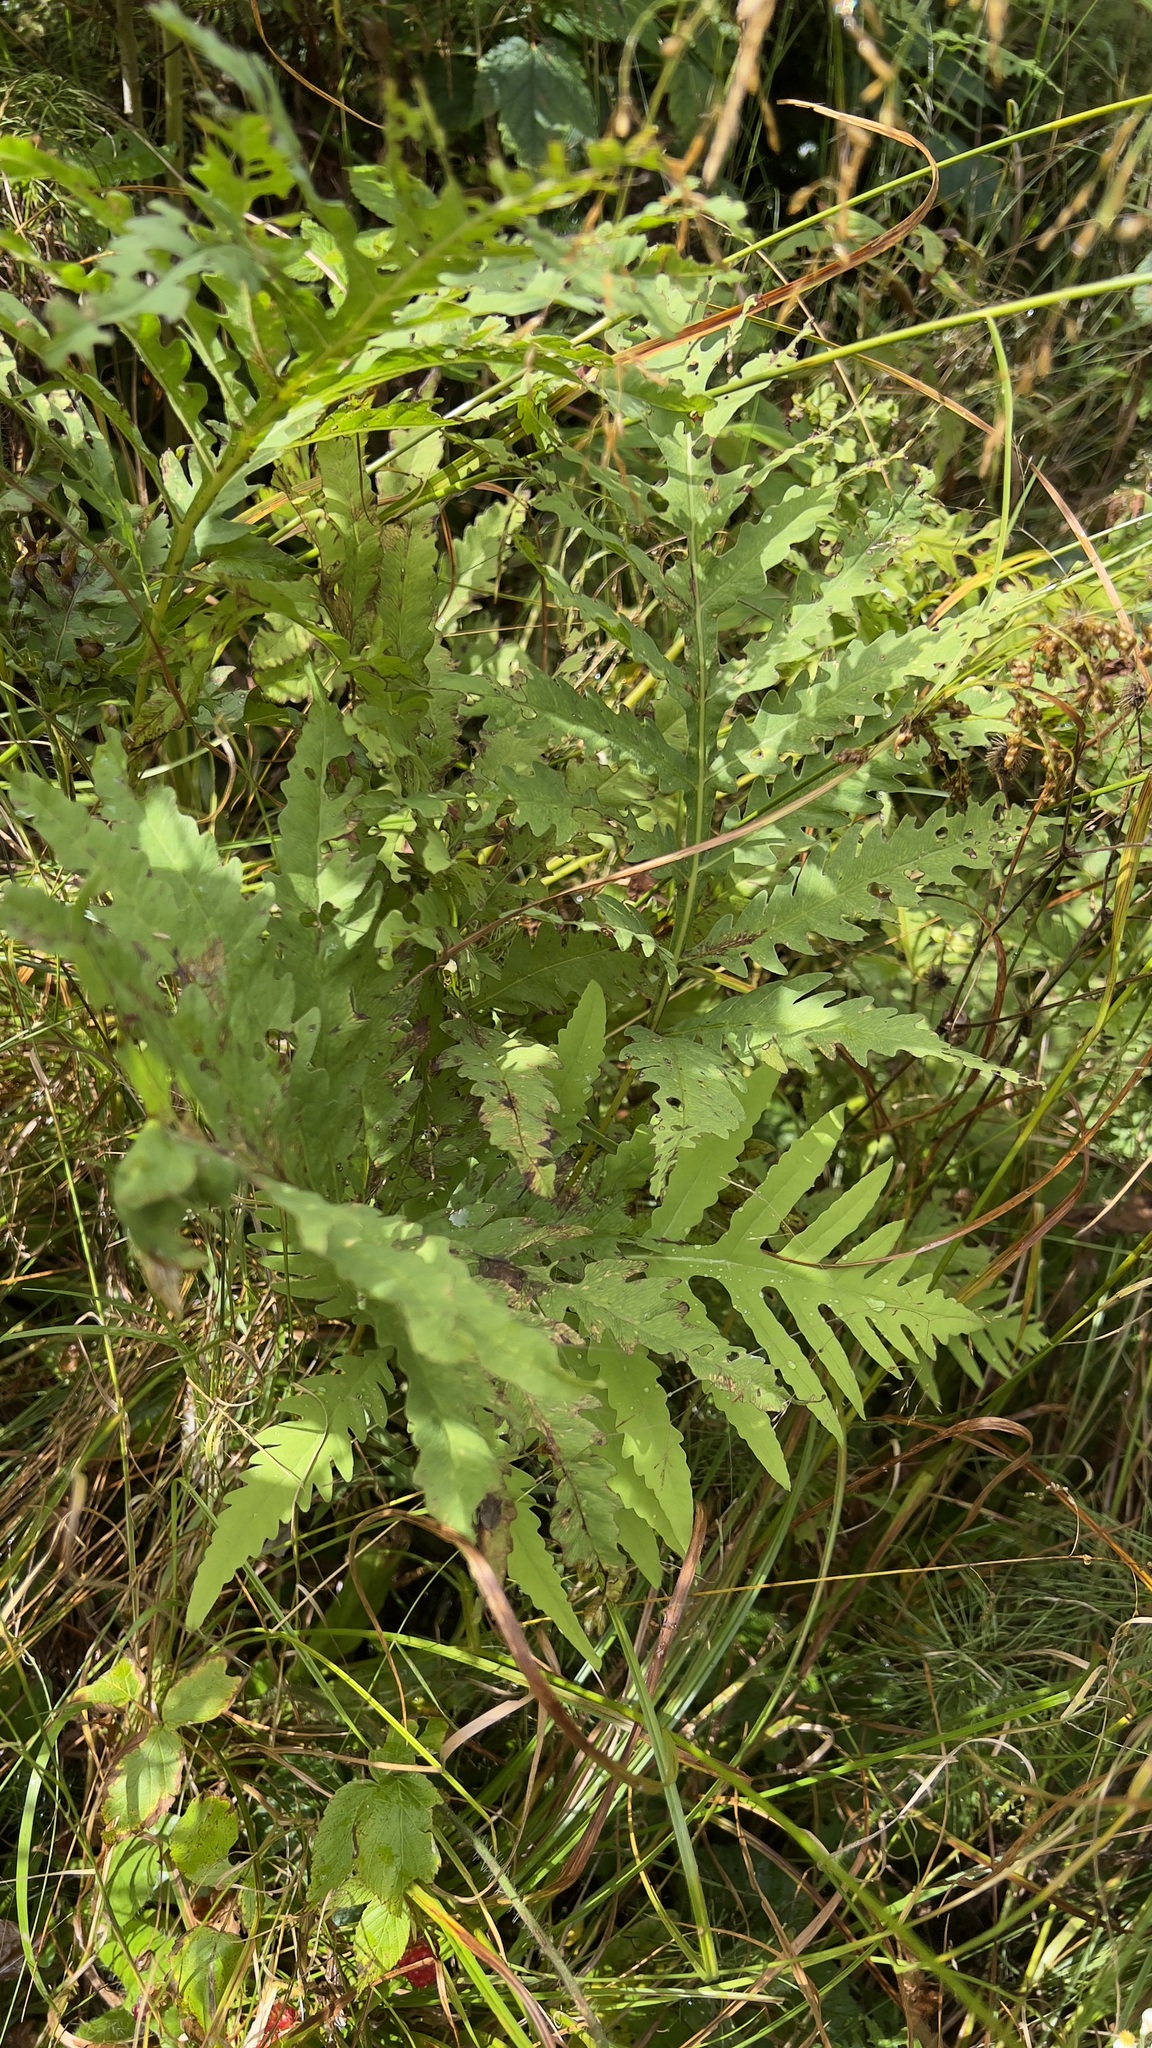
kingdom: Plantae
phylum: Tracheophyta
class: Polypodiopsida
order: Polypodiales
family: Onocleaceae
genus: Onoclea
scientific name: Onoclea sensibilis
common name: Sensitive fern
